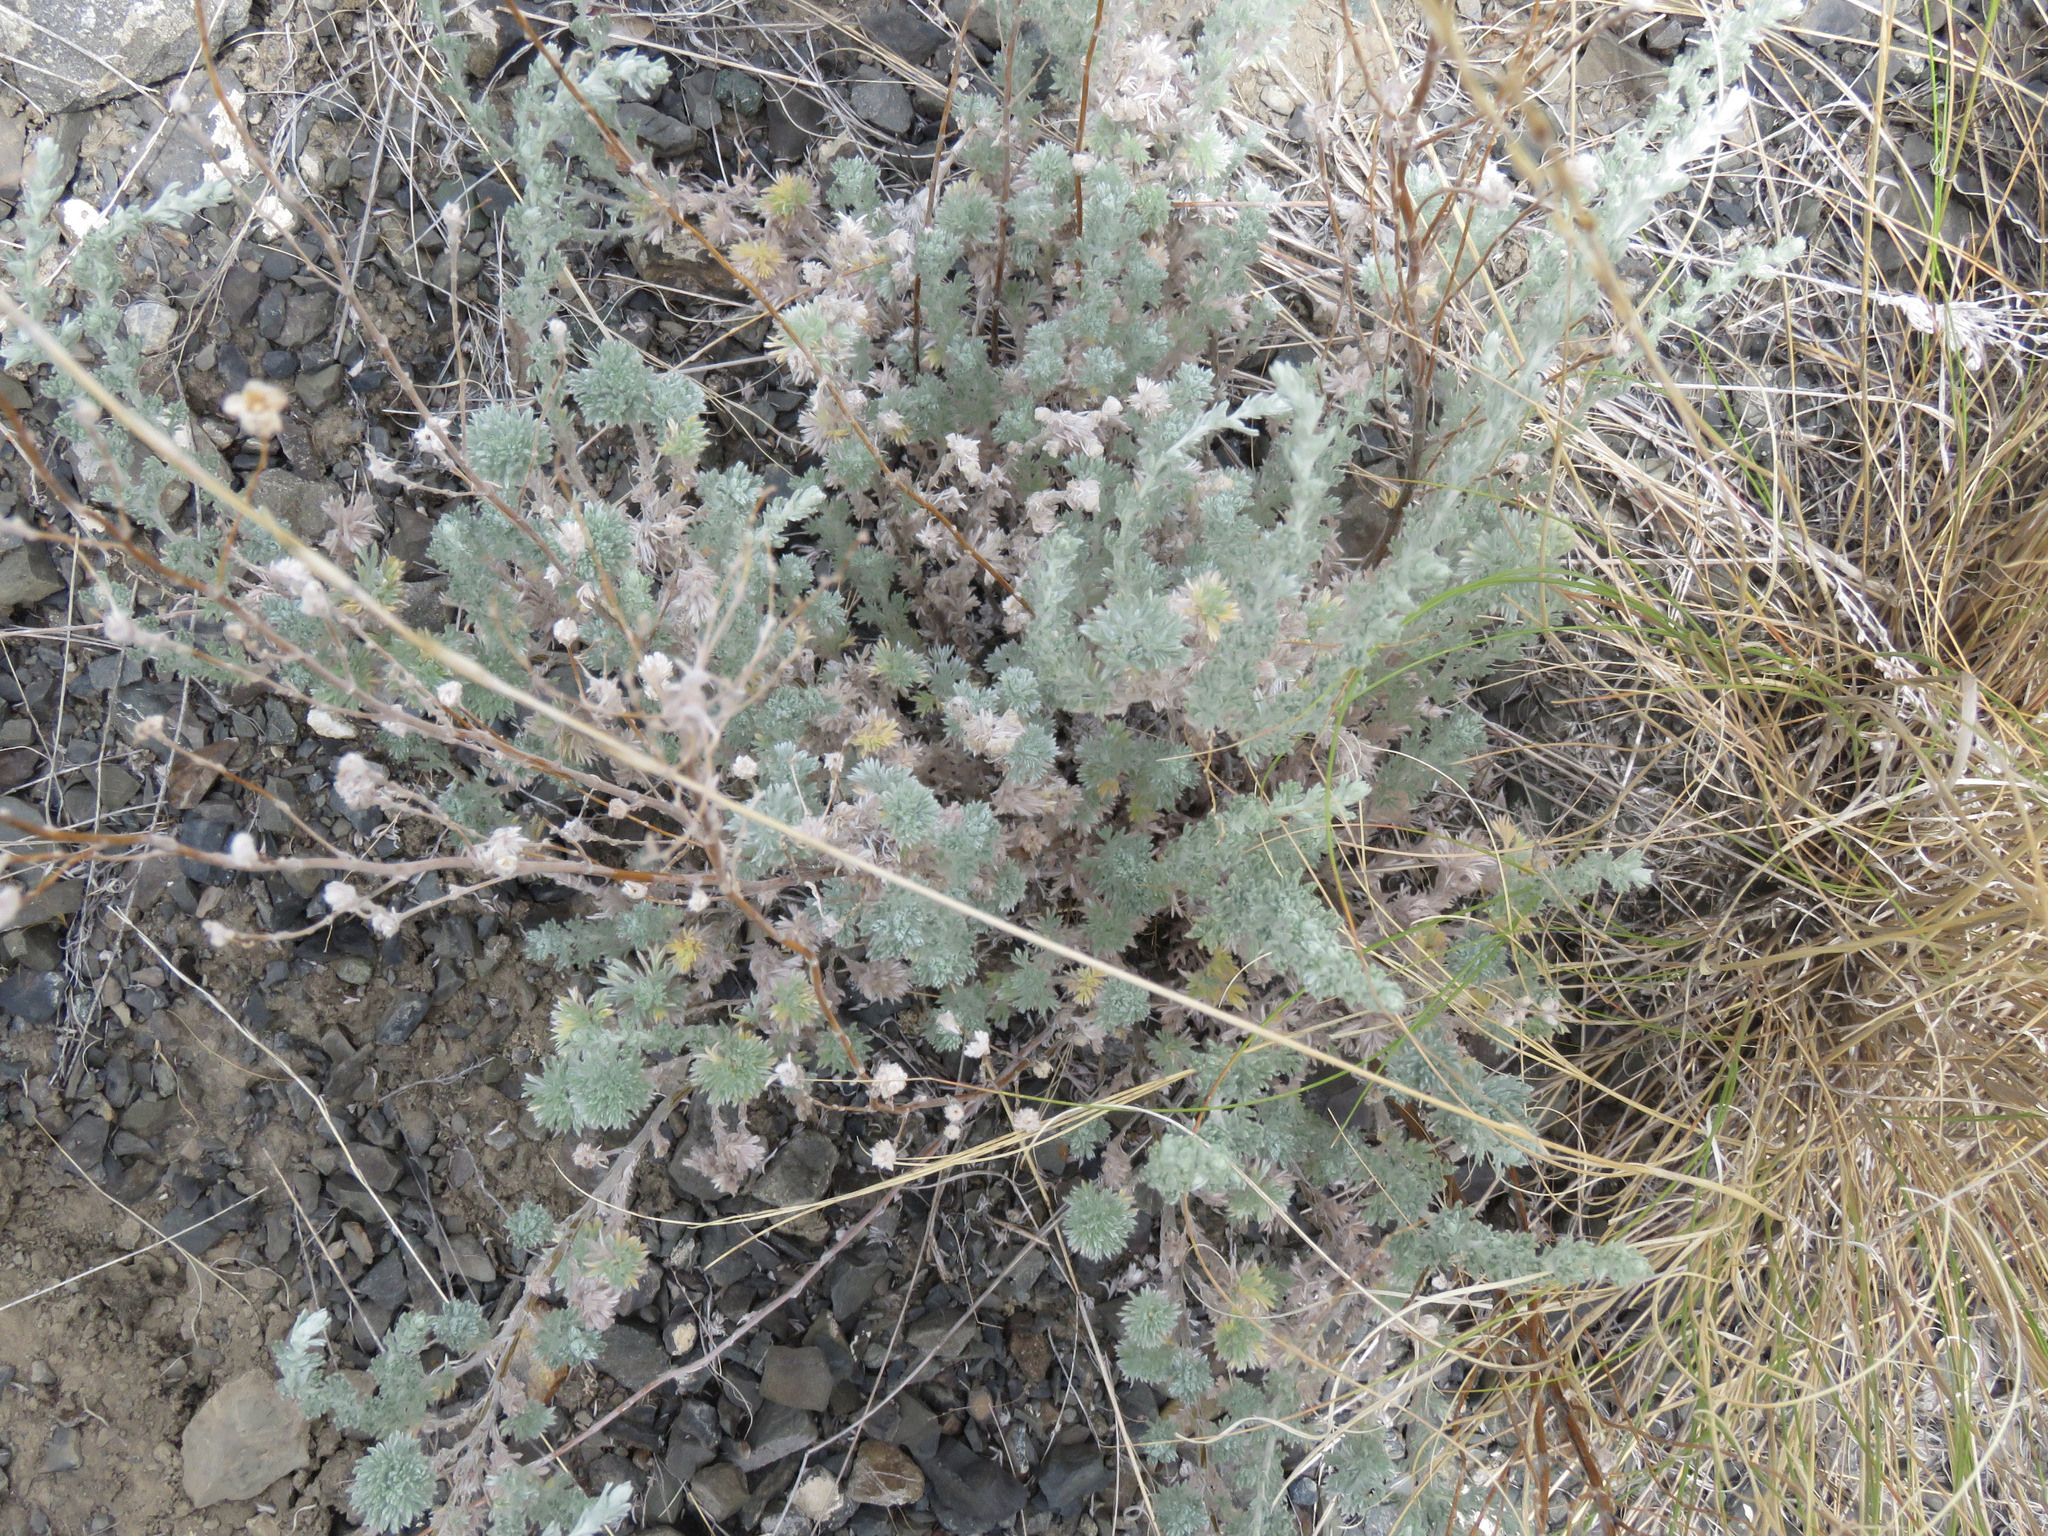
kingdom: Plantae
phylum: Tracheophyta
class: Magnoliopsida
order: Asterales
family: Asteraceae
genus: Artemisia
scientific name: Artemisia frigida
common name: Prairie sagewort
